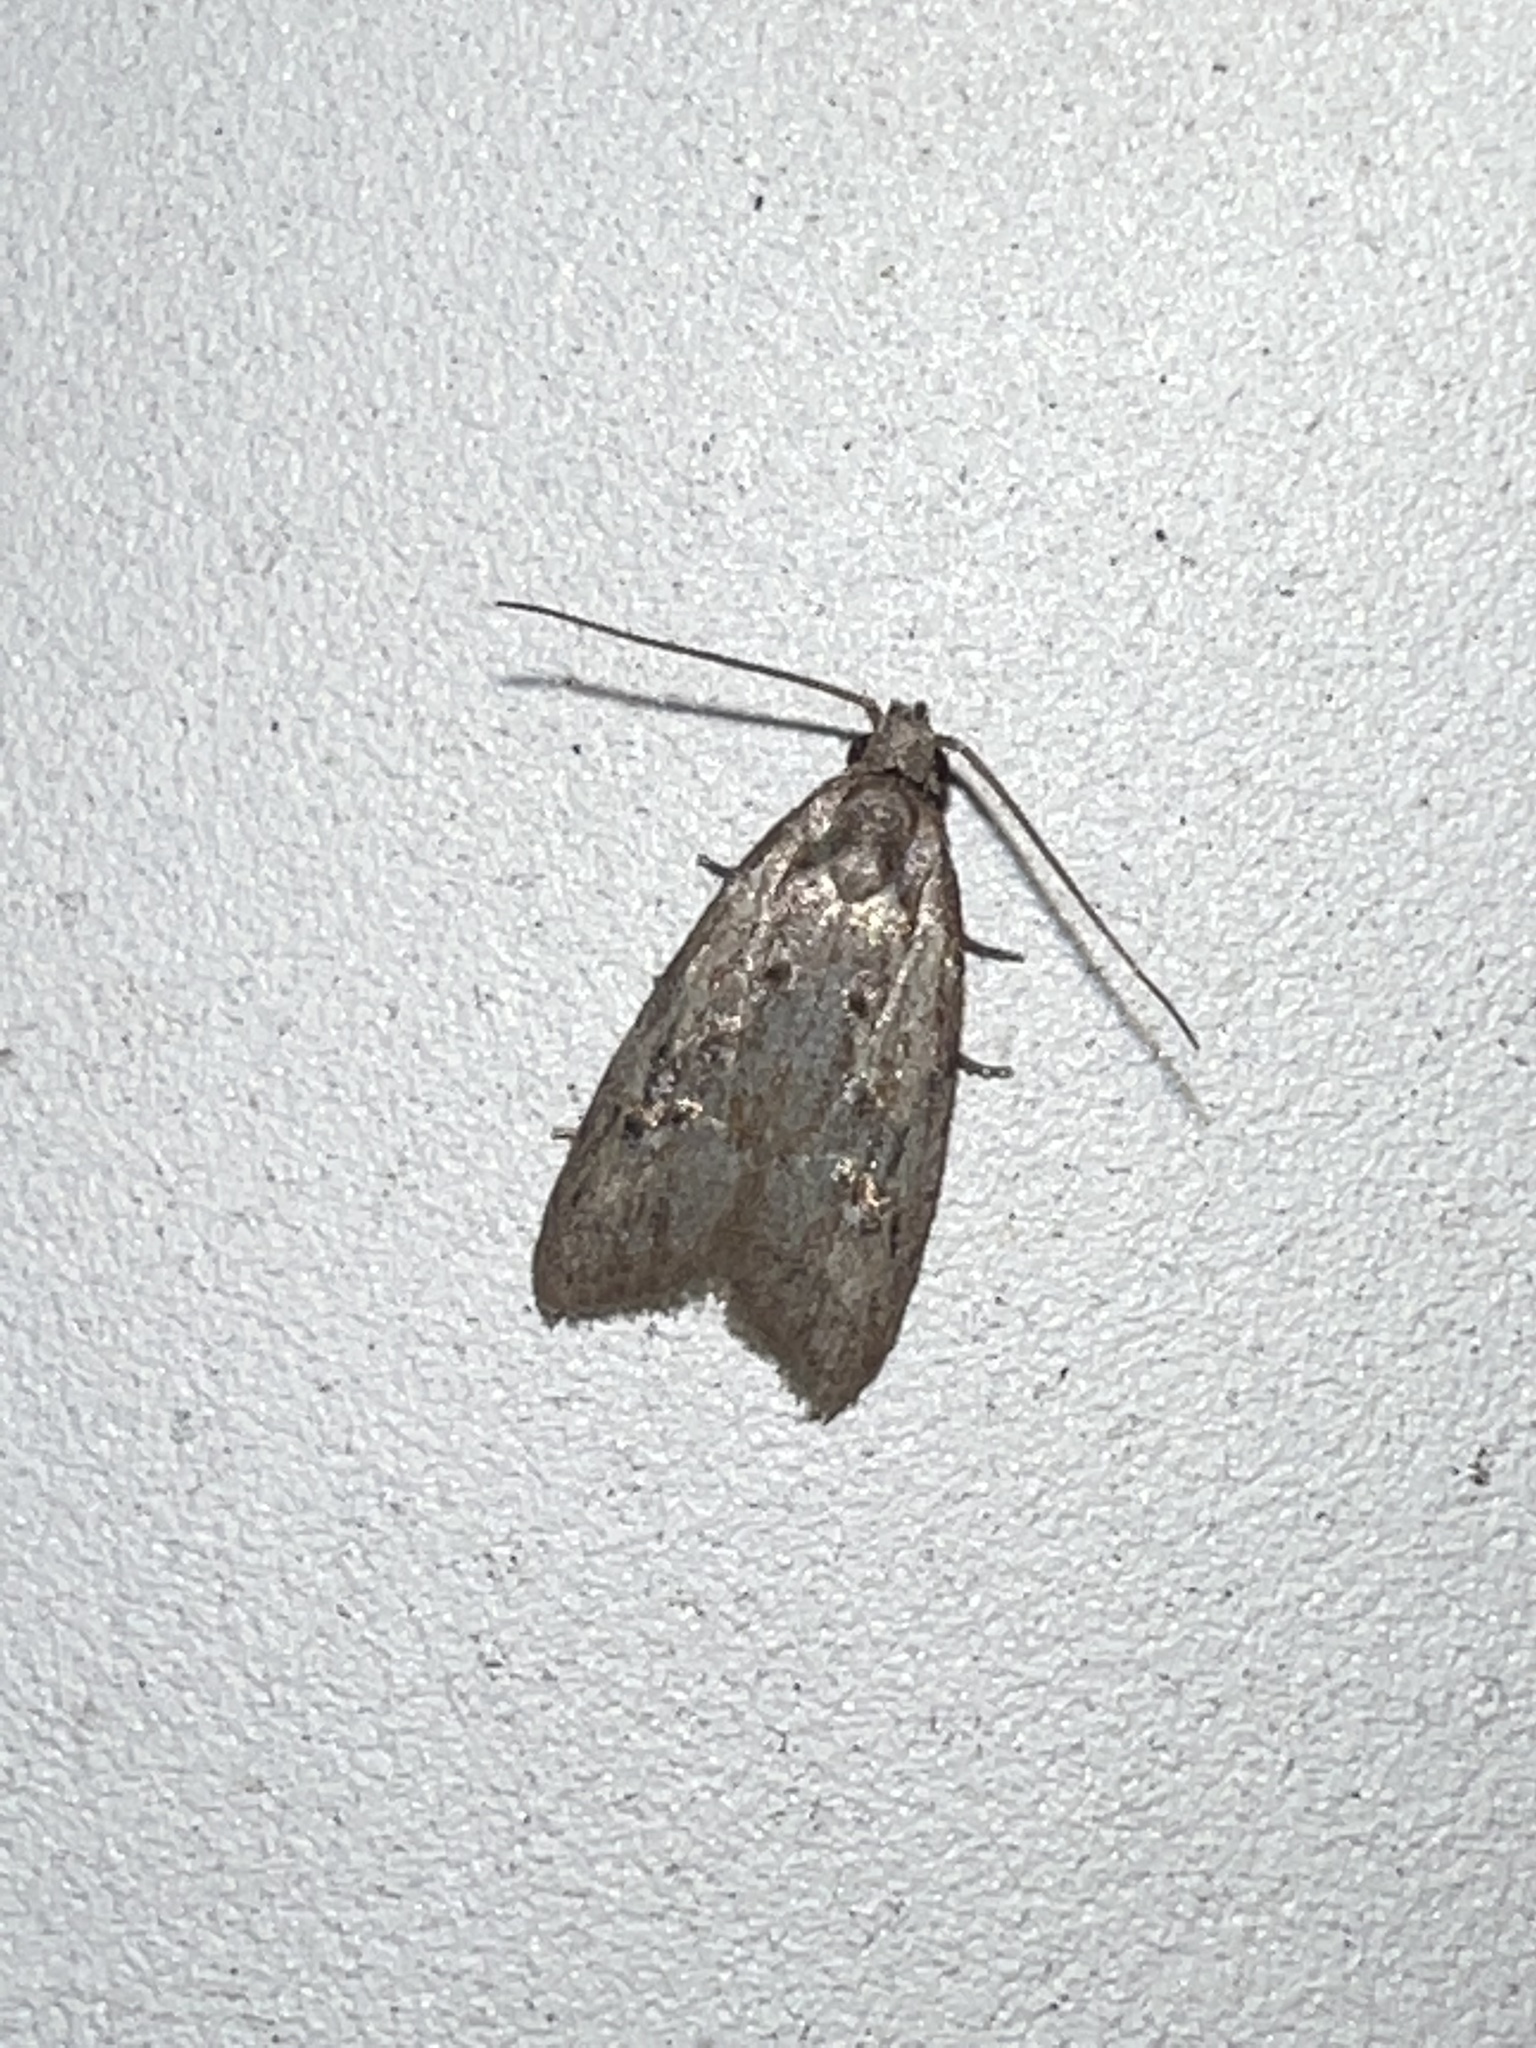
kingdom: Animalia
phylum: Arthropoda
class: Insecta
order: Lepidoptera
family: Tortricidae
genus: Platynota
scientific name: Platynota idaeusalis
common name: Tufted apple bud moth
